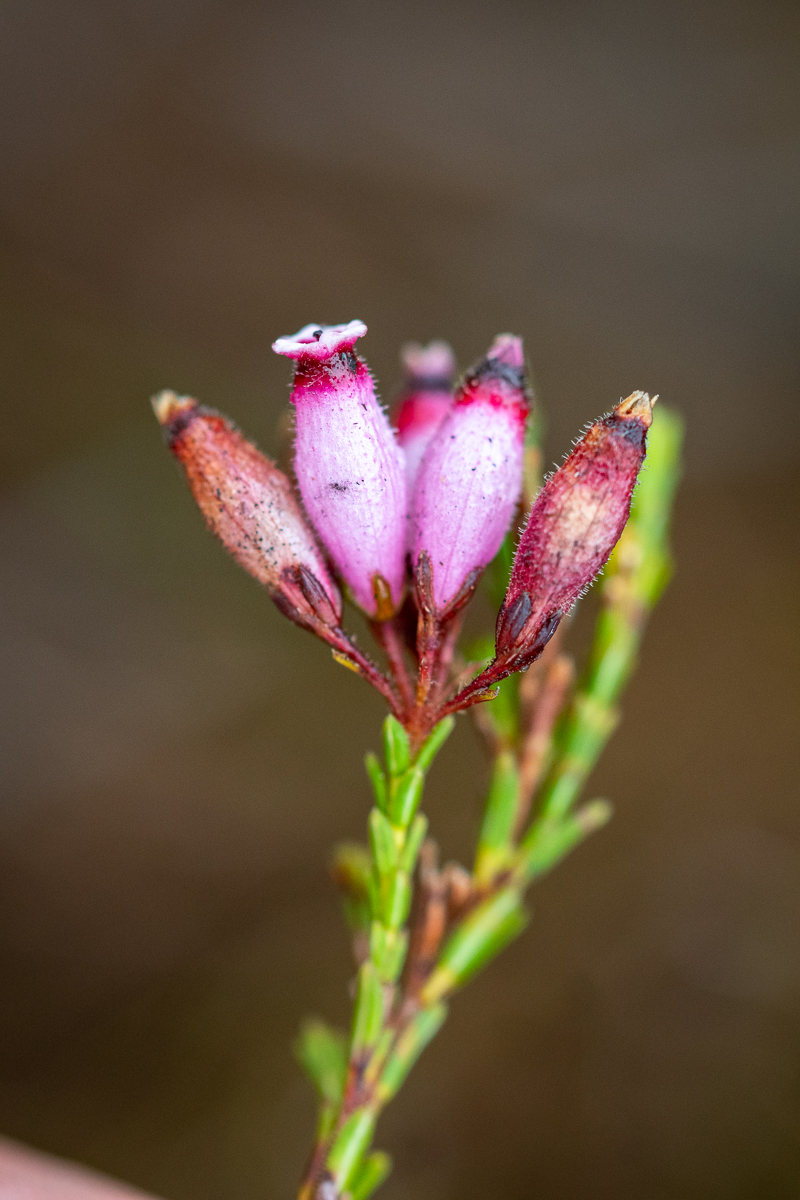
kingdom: Plantae
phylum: Tracheophyta
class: Magnoliopsida
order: Ericales
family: Ericaceae
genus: Erica
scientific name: Erica cristata
